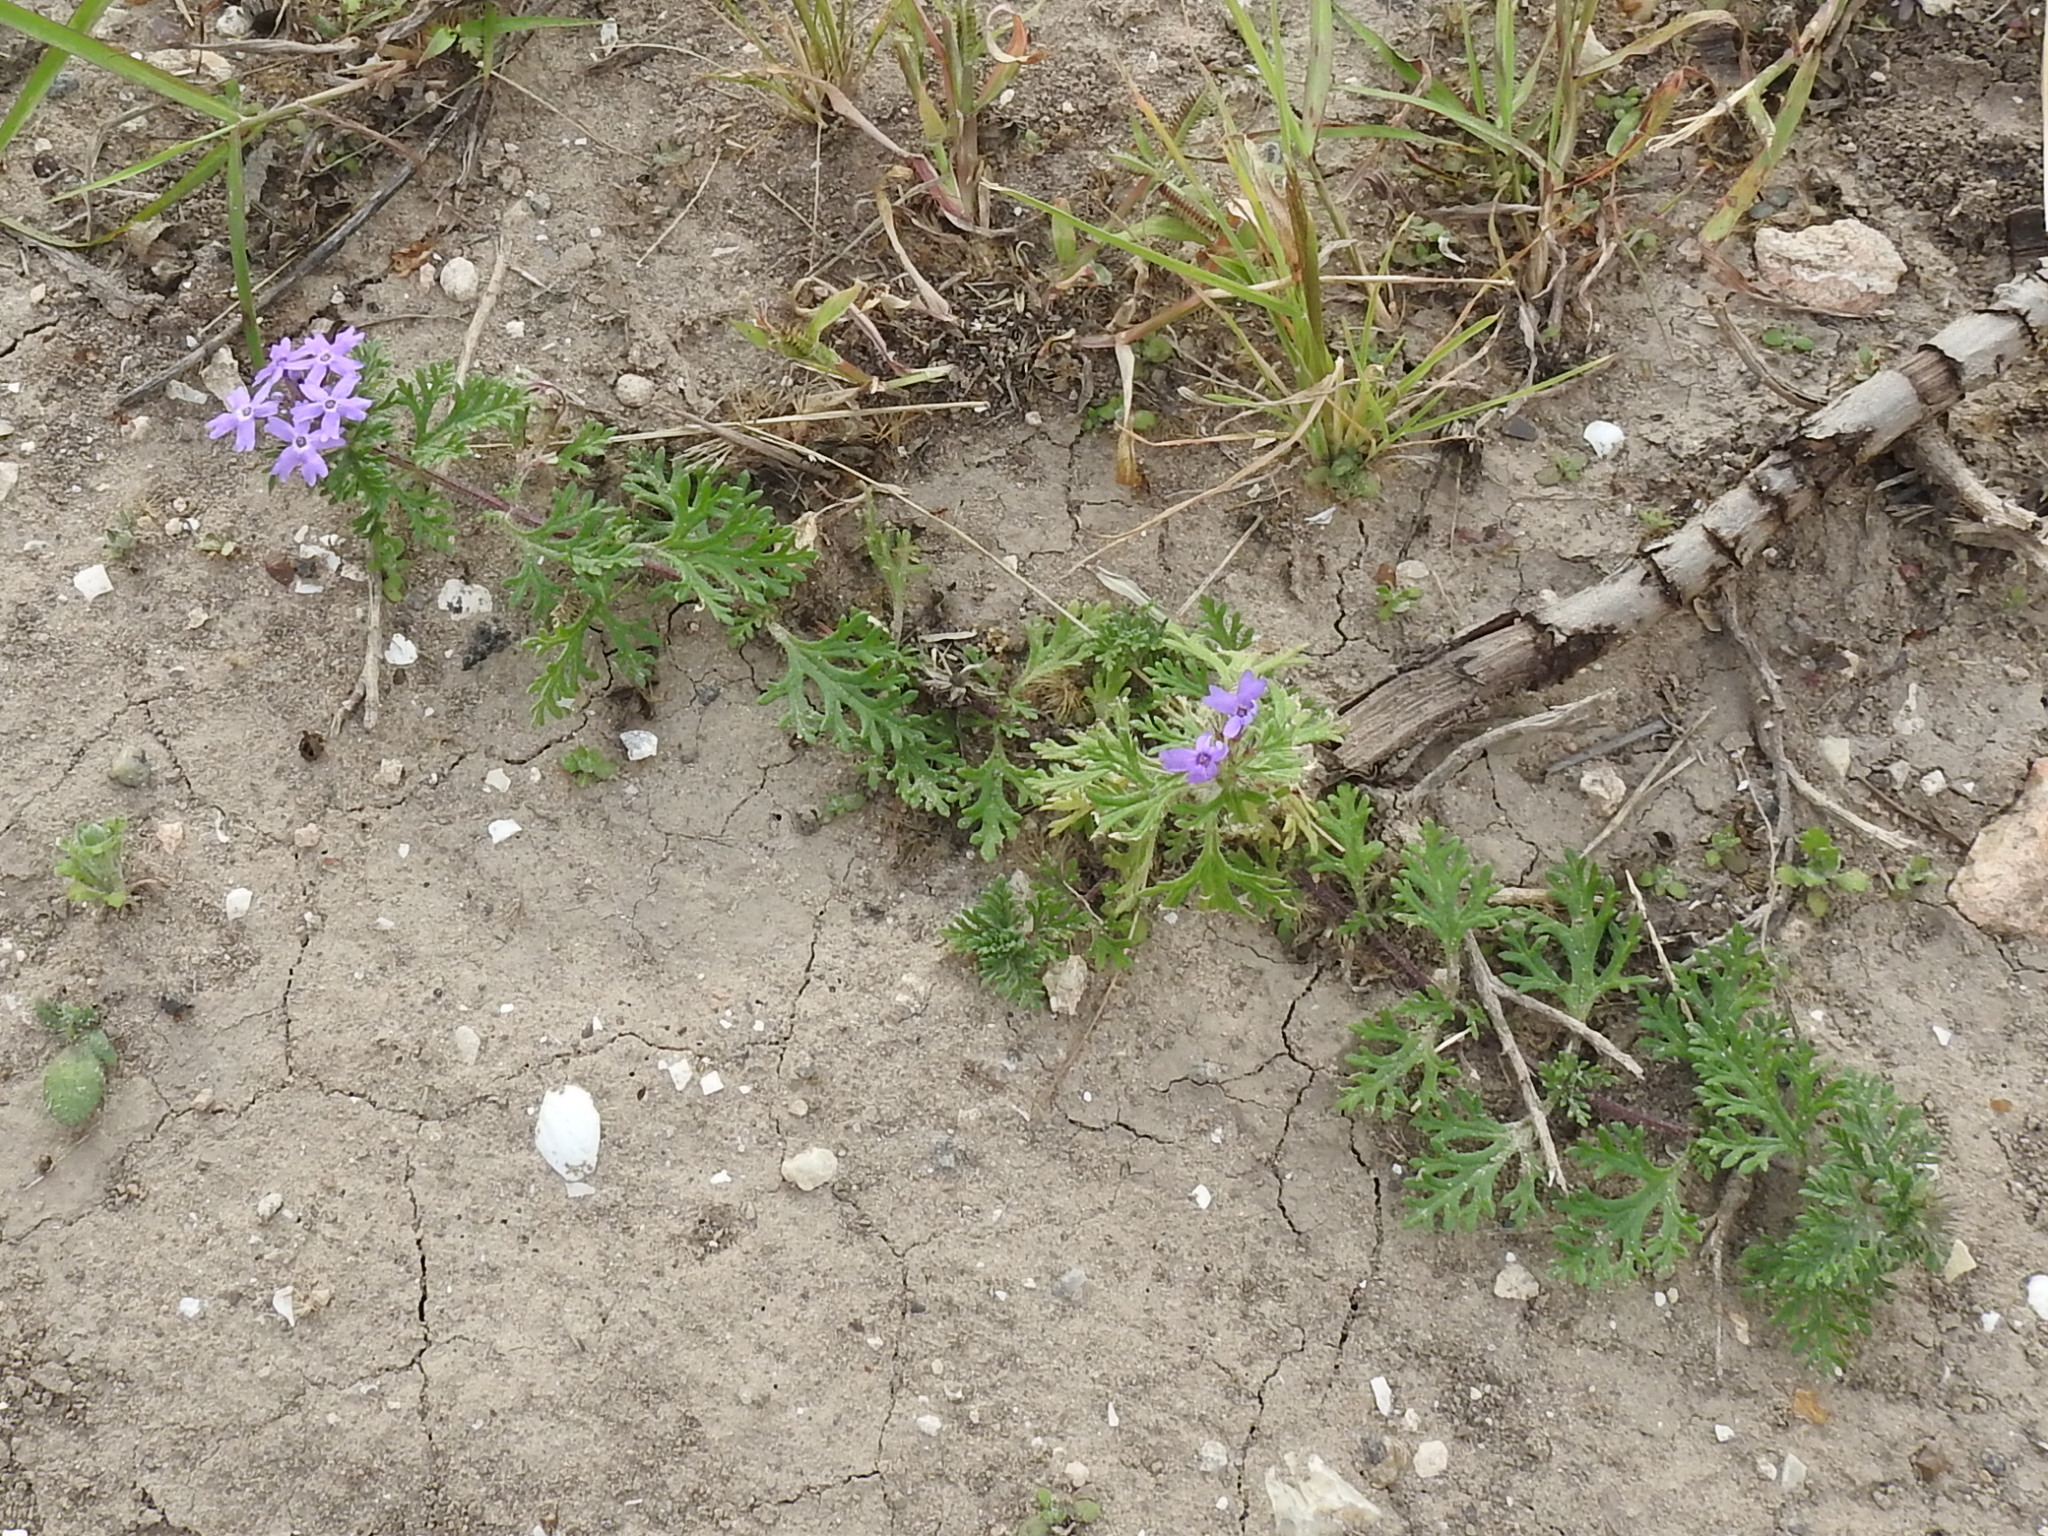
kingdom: Plantae
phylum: Tracheophyta
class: Magnoliopsida
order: Lamiales
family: Verbenaceae
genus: Verbena
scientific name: Verbena bipinnatifida
